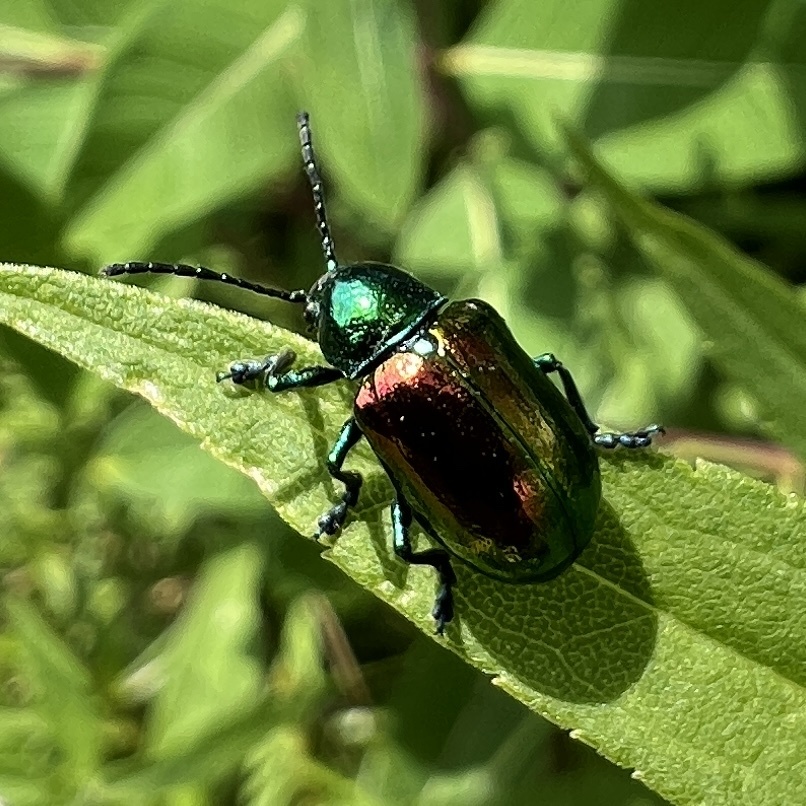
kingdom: Animalia
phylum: Arthropoda
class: Insecta
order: Coleoptera
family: Chrysomelidae
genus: Chrysochus
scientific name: Chrysochus auratus
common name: Dogbane leaf beetle
